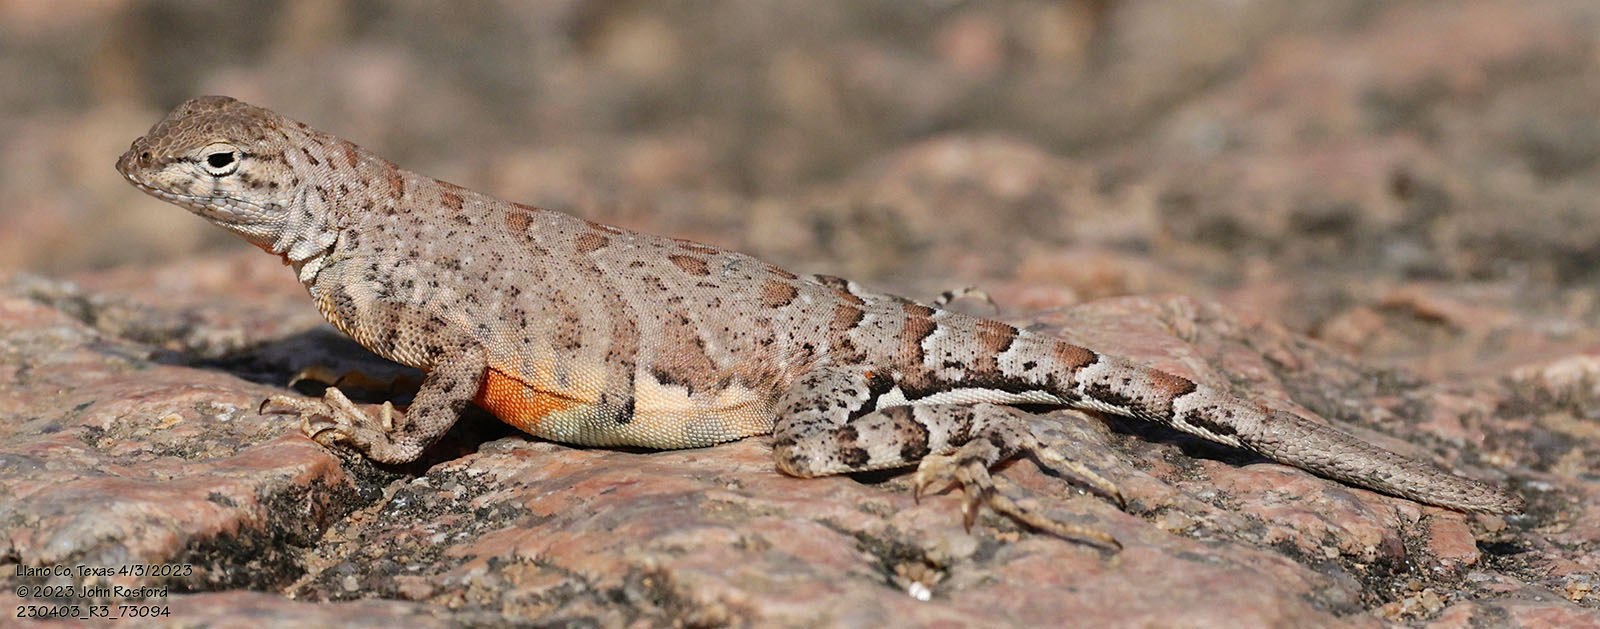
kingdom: Animalia
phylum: Chordata
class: Squamata
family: Phrynosomatidae
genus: Cophosaurus
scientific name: Cophosaurus texanus
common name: Greater earless lizard
